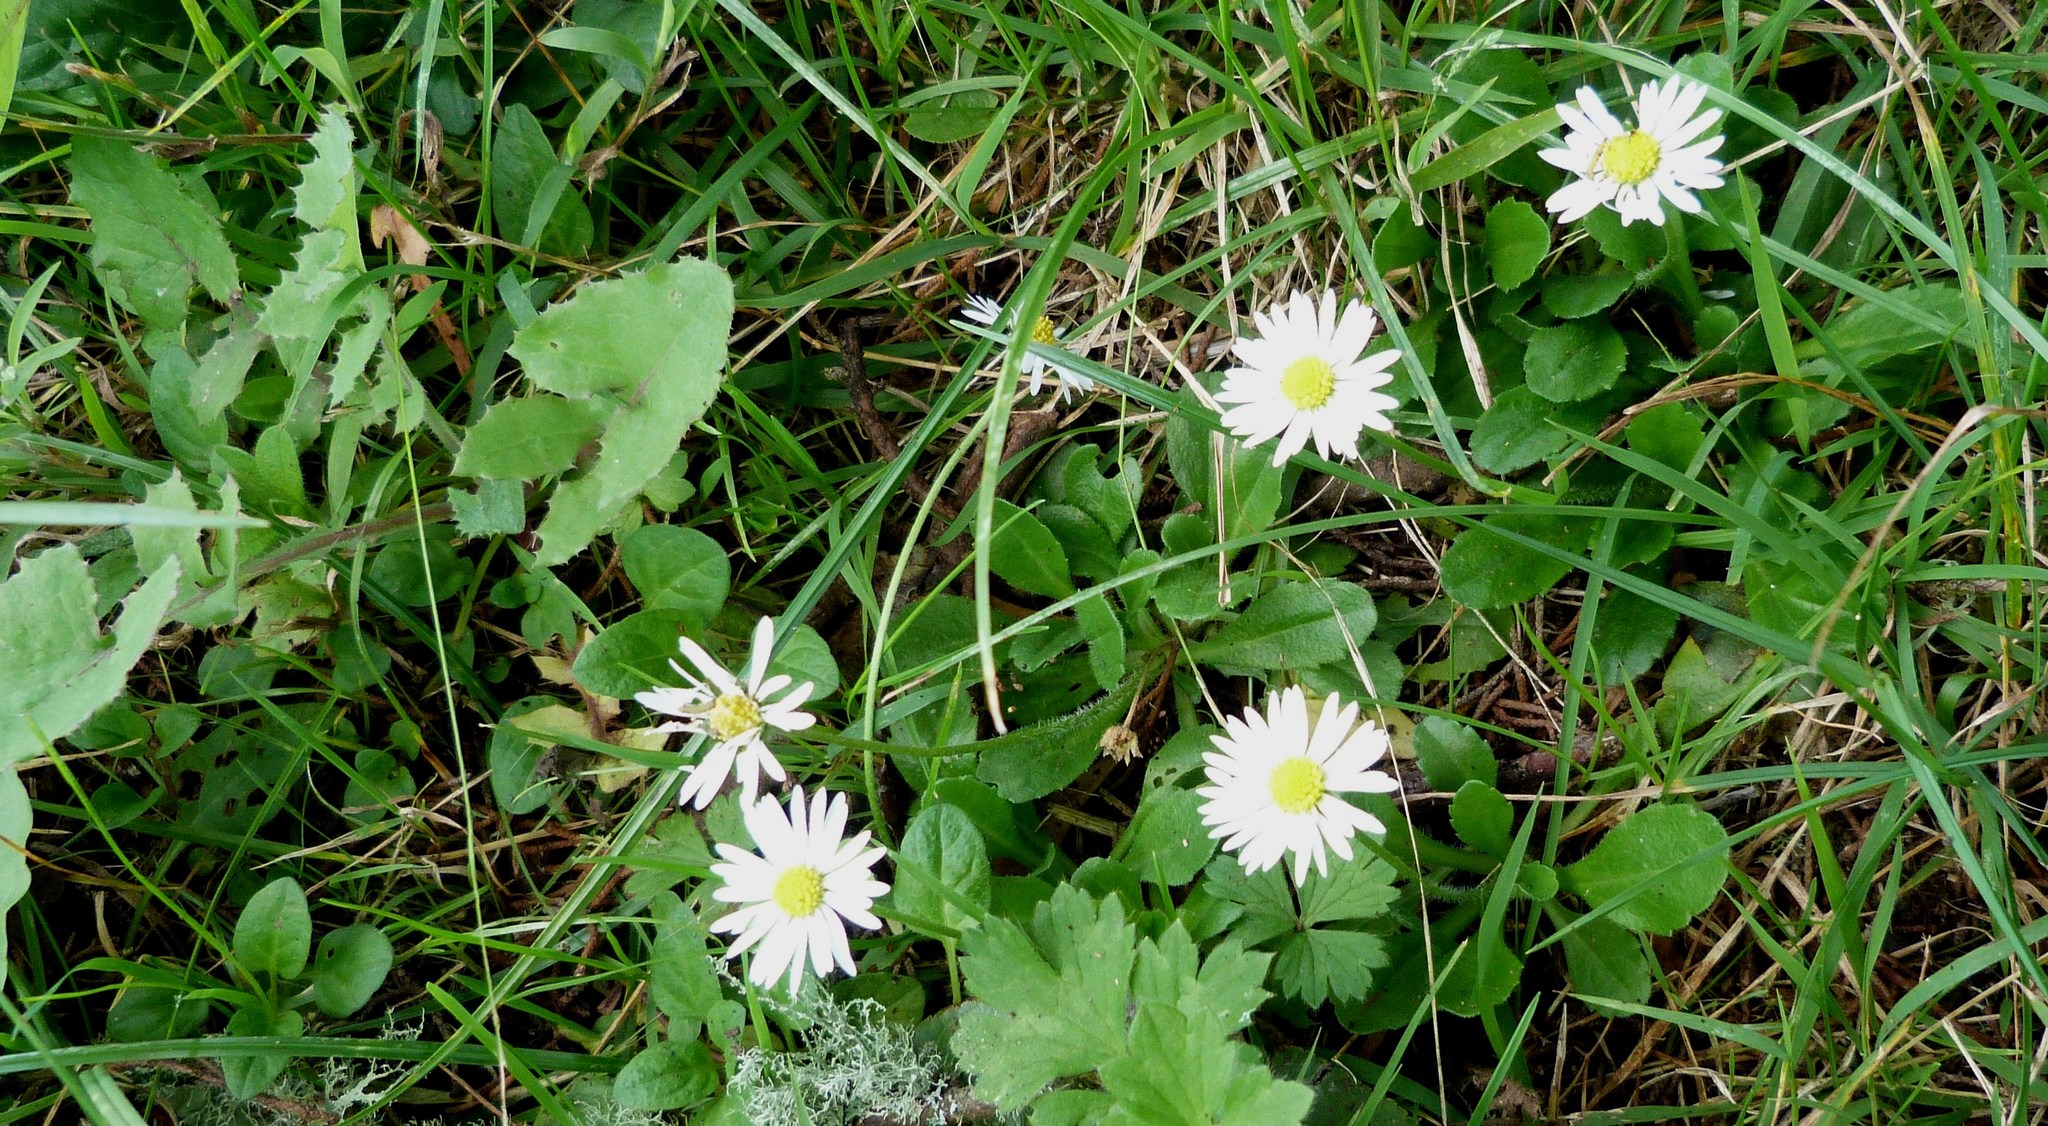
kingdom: Plantae
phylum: Tracheophyta
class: Magnoliopsida
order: Asterales
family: Asteraceae
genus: Bellis
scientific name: Bellis perennis
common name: Lawndaisy
